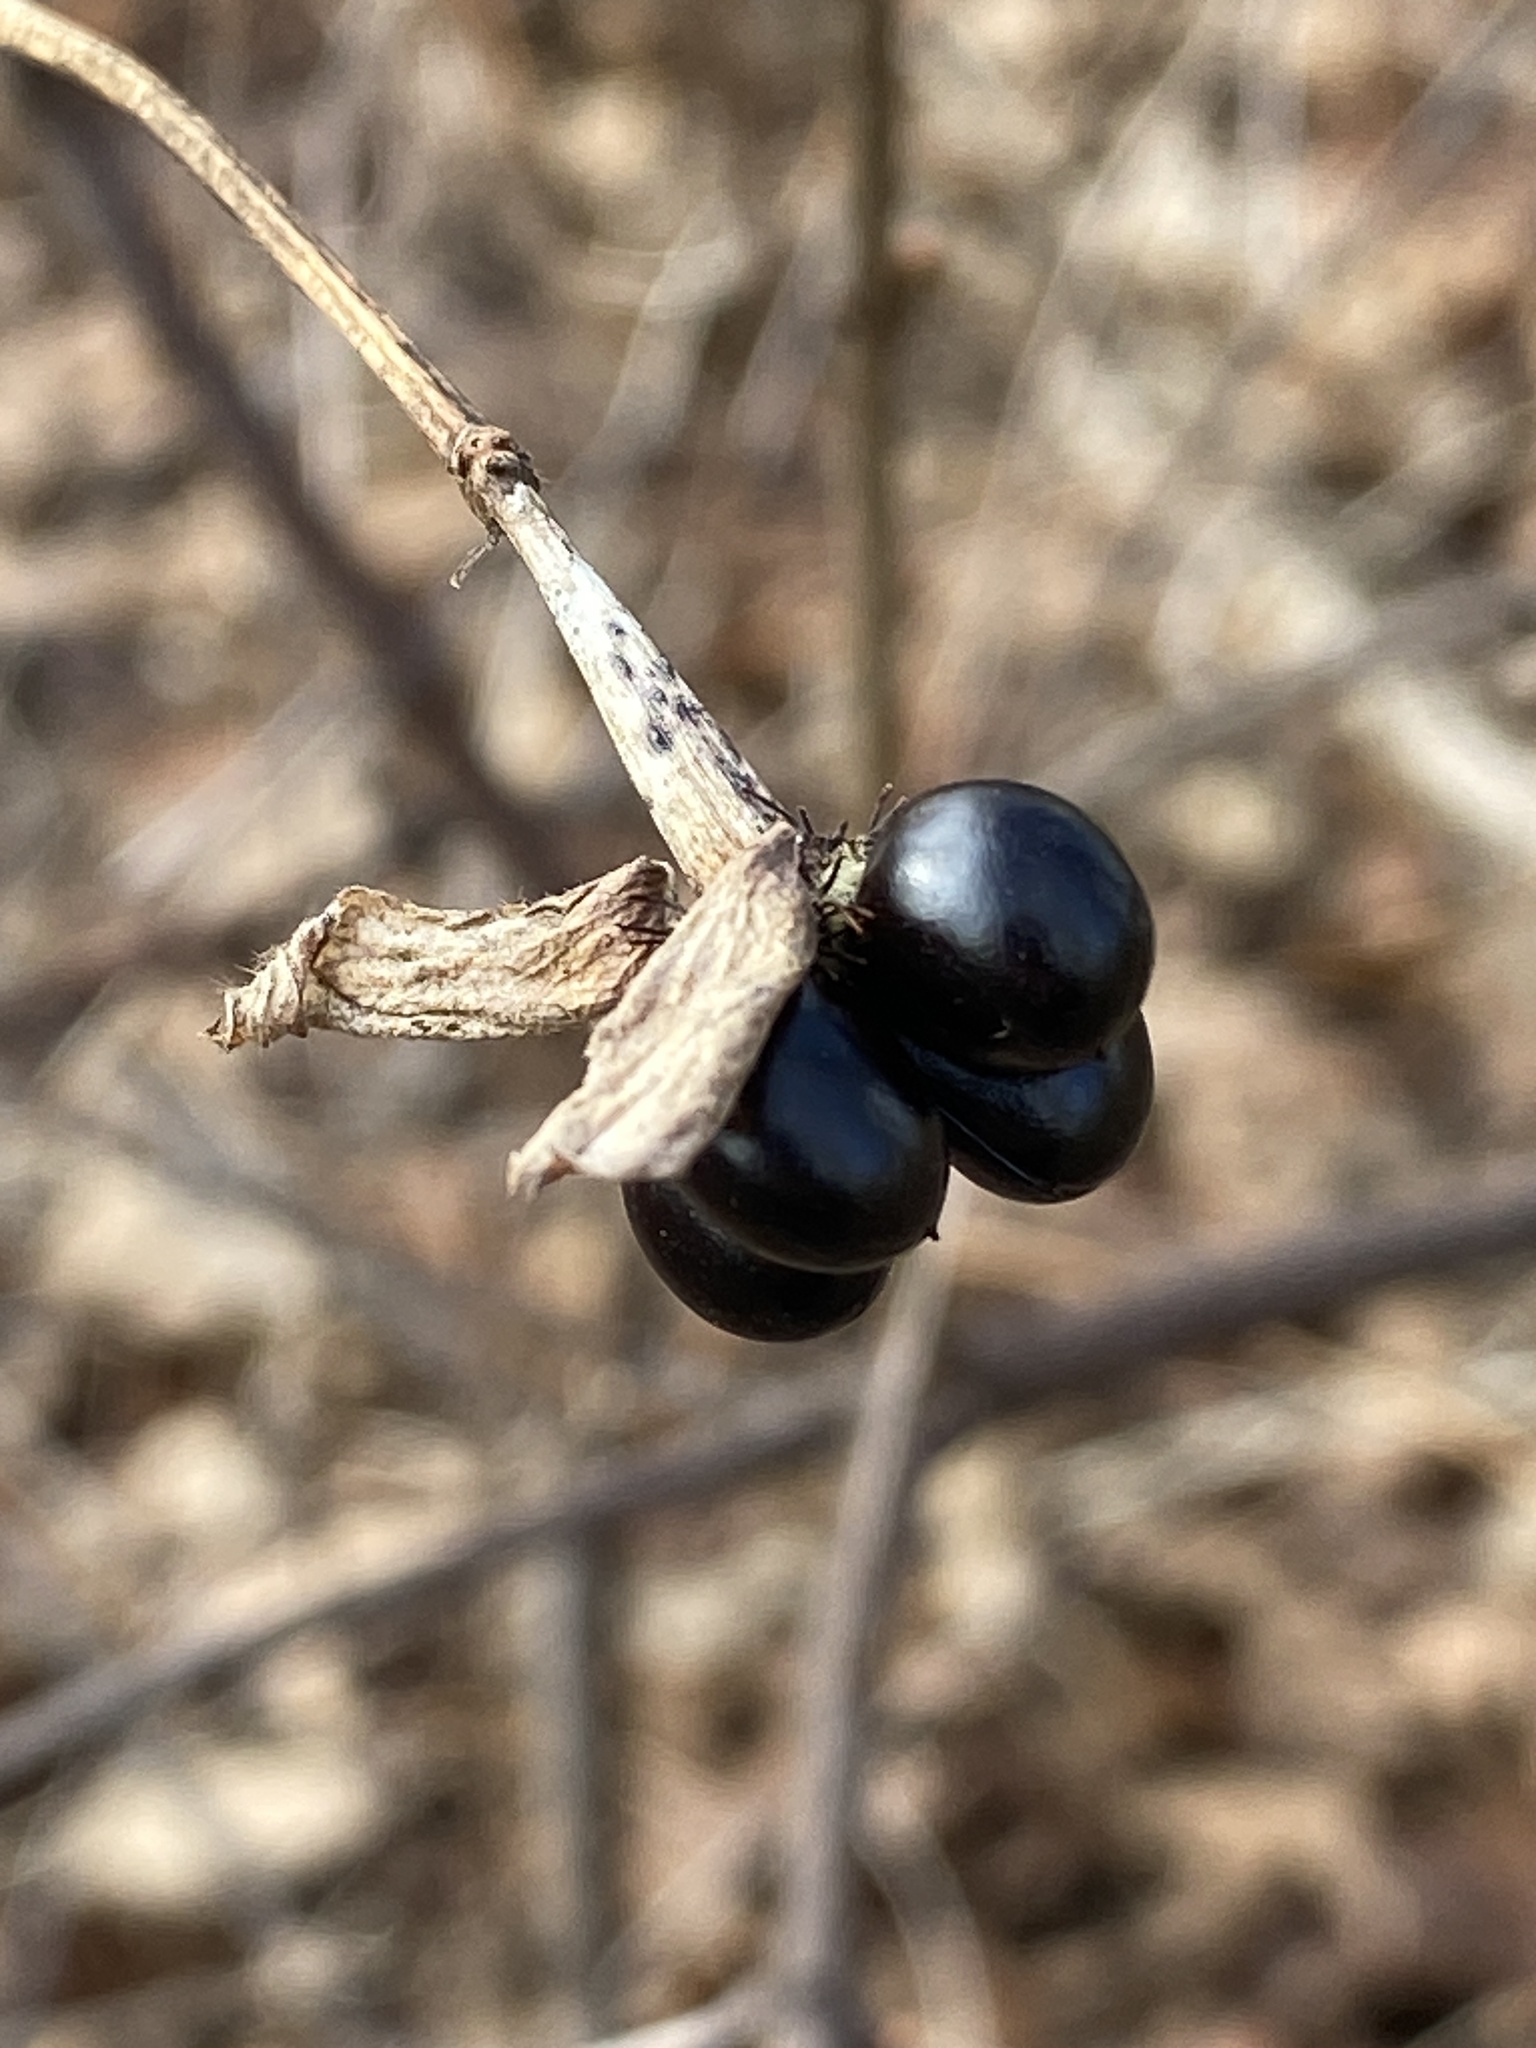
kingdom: Plantae
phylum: Tracheophyta
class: Magnoliopsida
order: Rosales
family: Rosaceae
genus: Rhodotypos
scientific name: Rhodotypos scandens
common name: Jetbead
